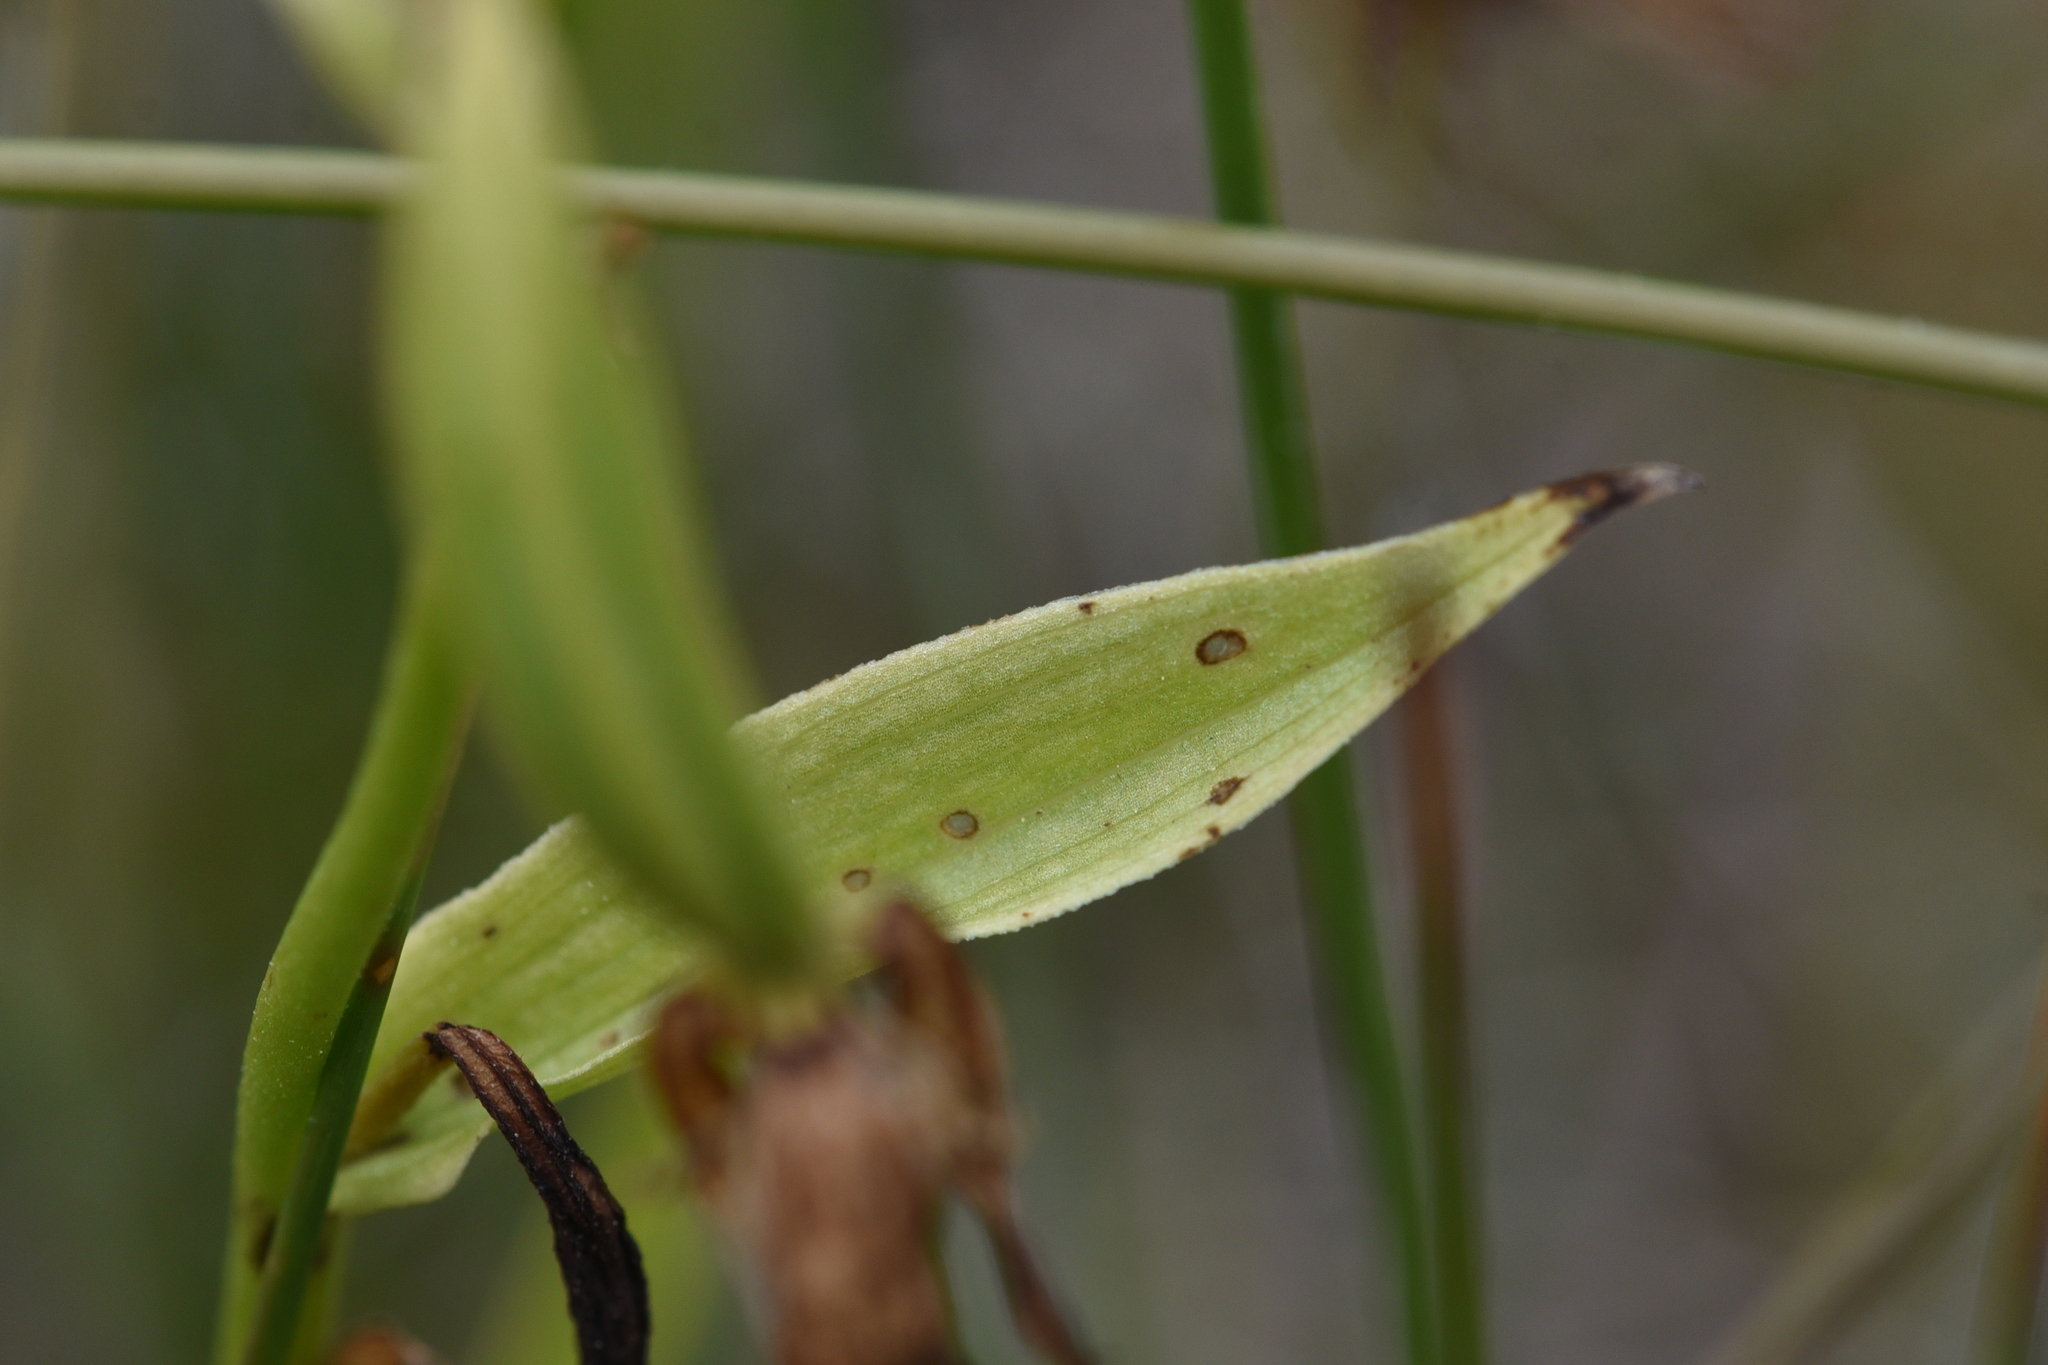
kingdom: Plantae
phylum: Tracheophyta
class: Liliopsida
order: Asparagales
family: Orchidaceae
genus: Epipactis
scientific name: Epipactis gigantea
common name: Chatterbox
